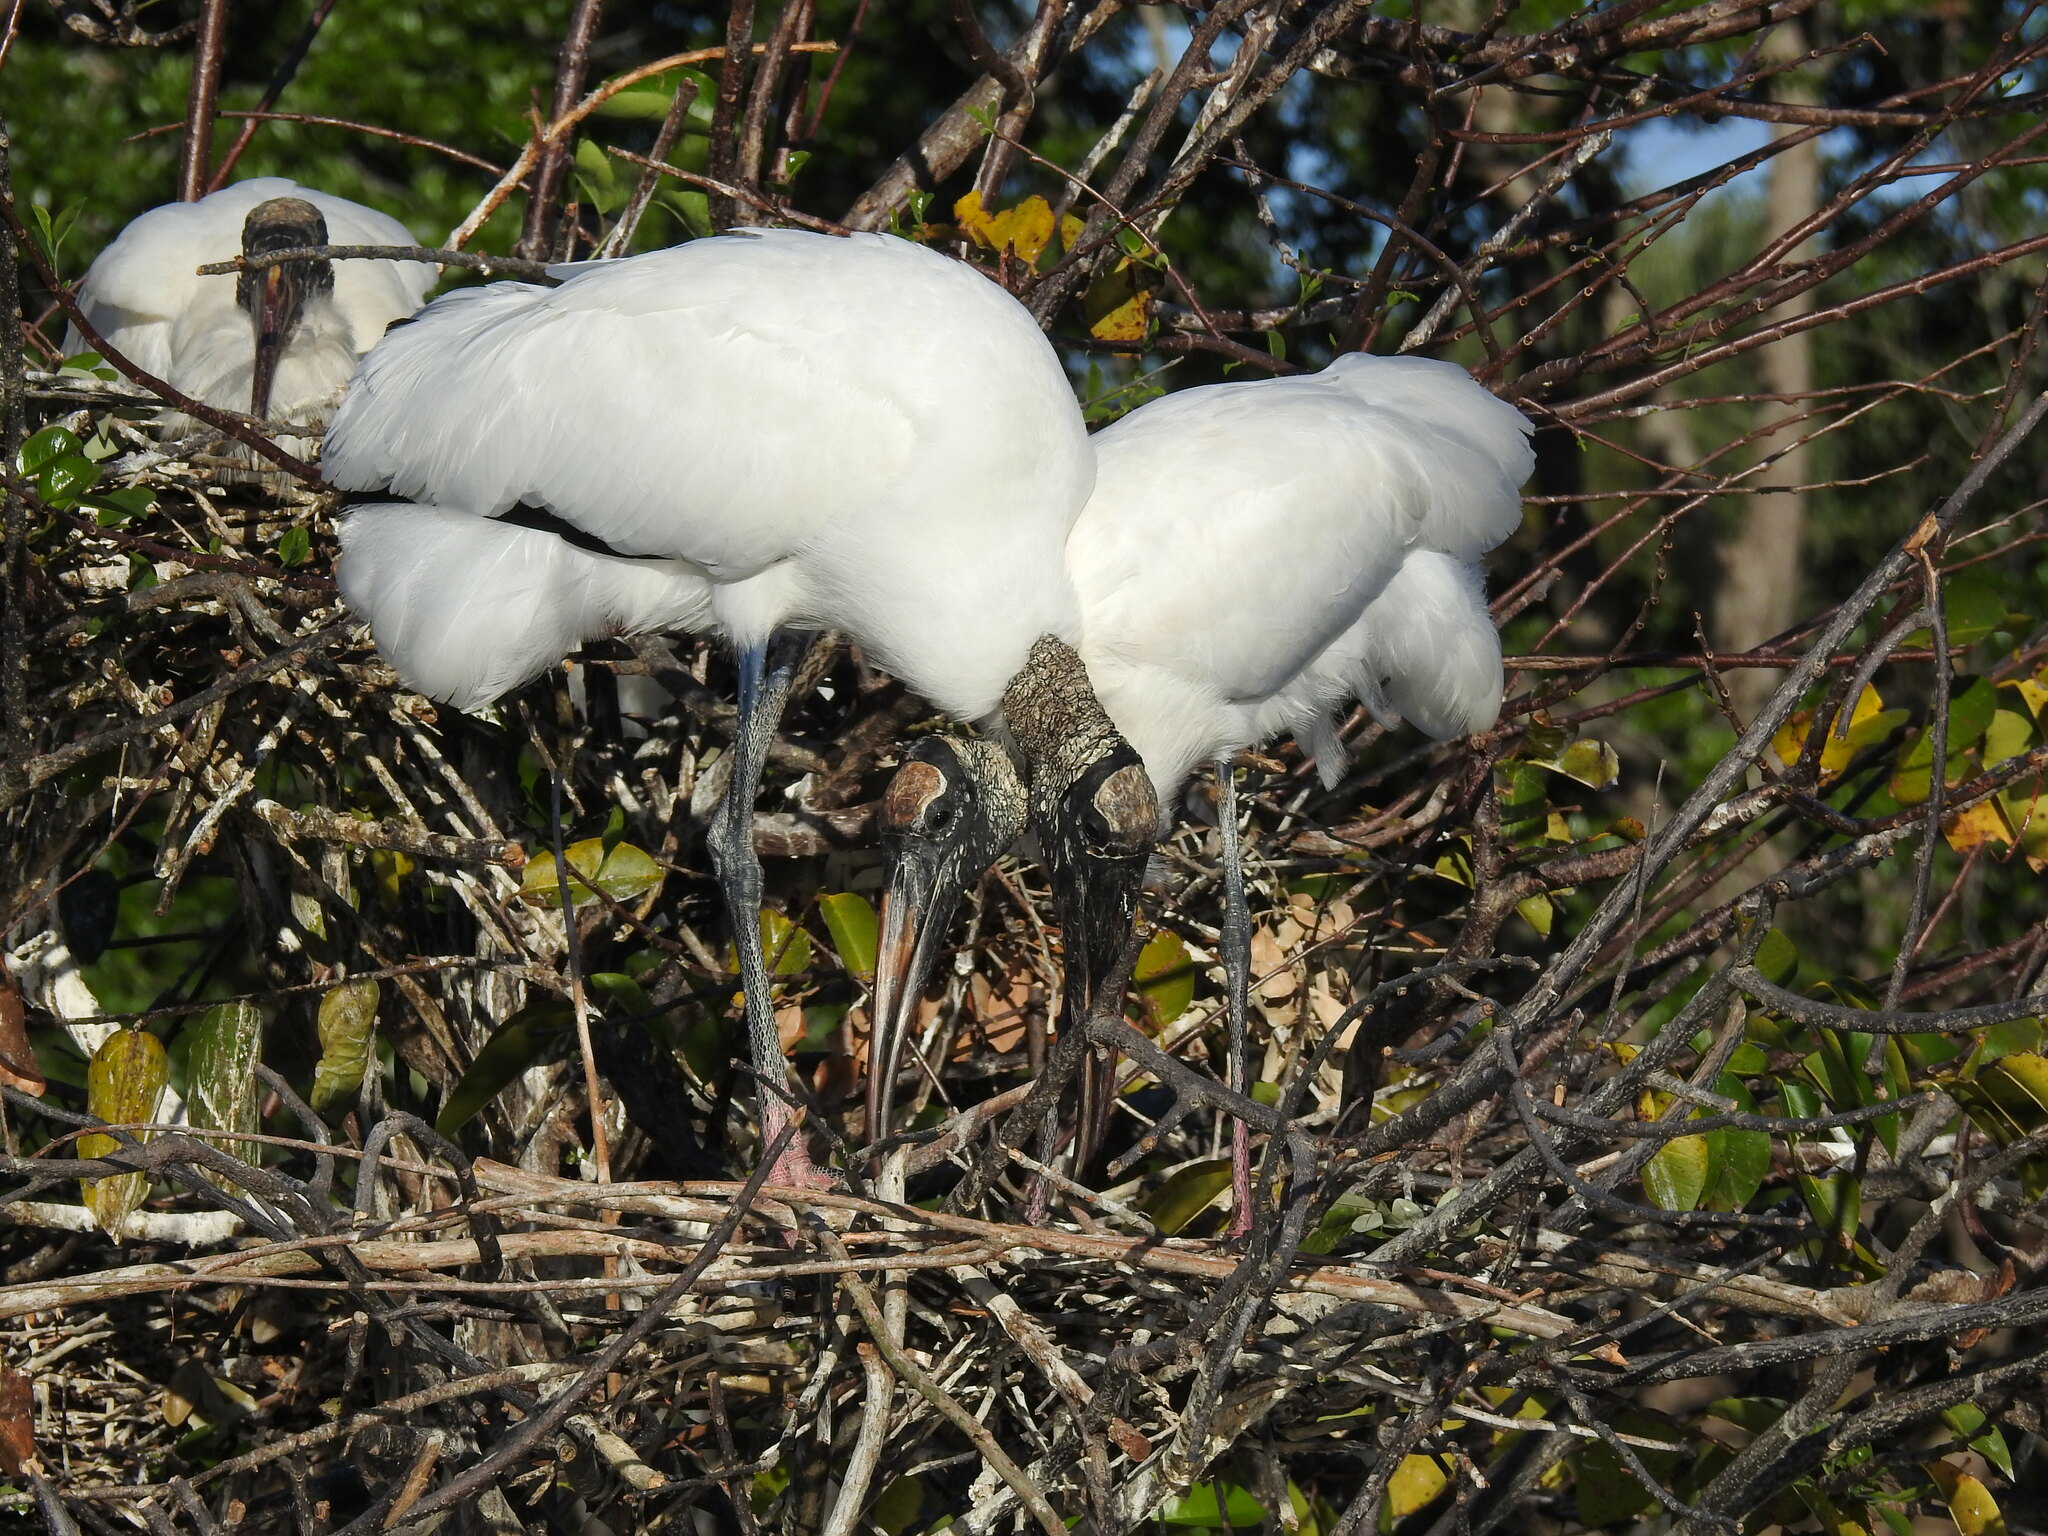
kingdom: Animalia
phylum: Chordata
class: Aves
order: Ciconiiformes
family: Ciconiidae
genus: Mycteria
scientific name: Mycteria americana
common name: Wood stork
